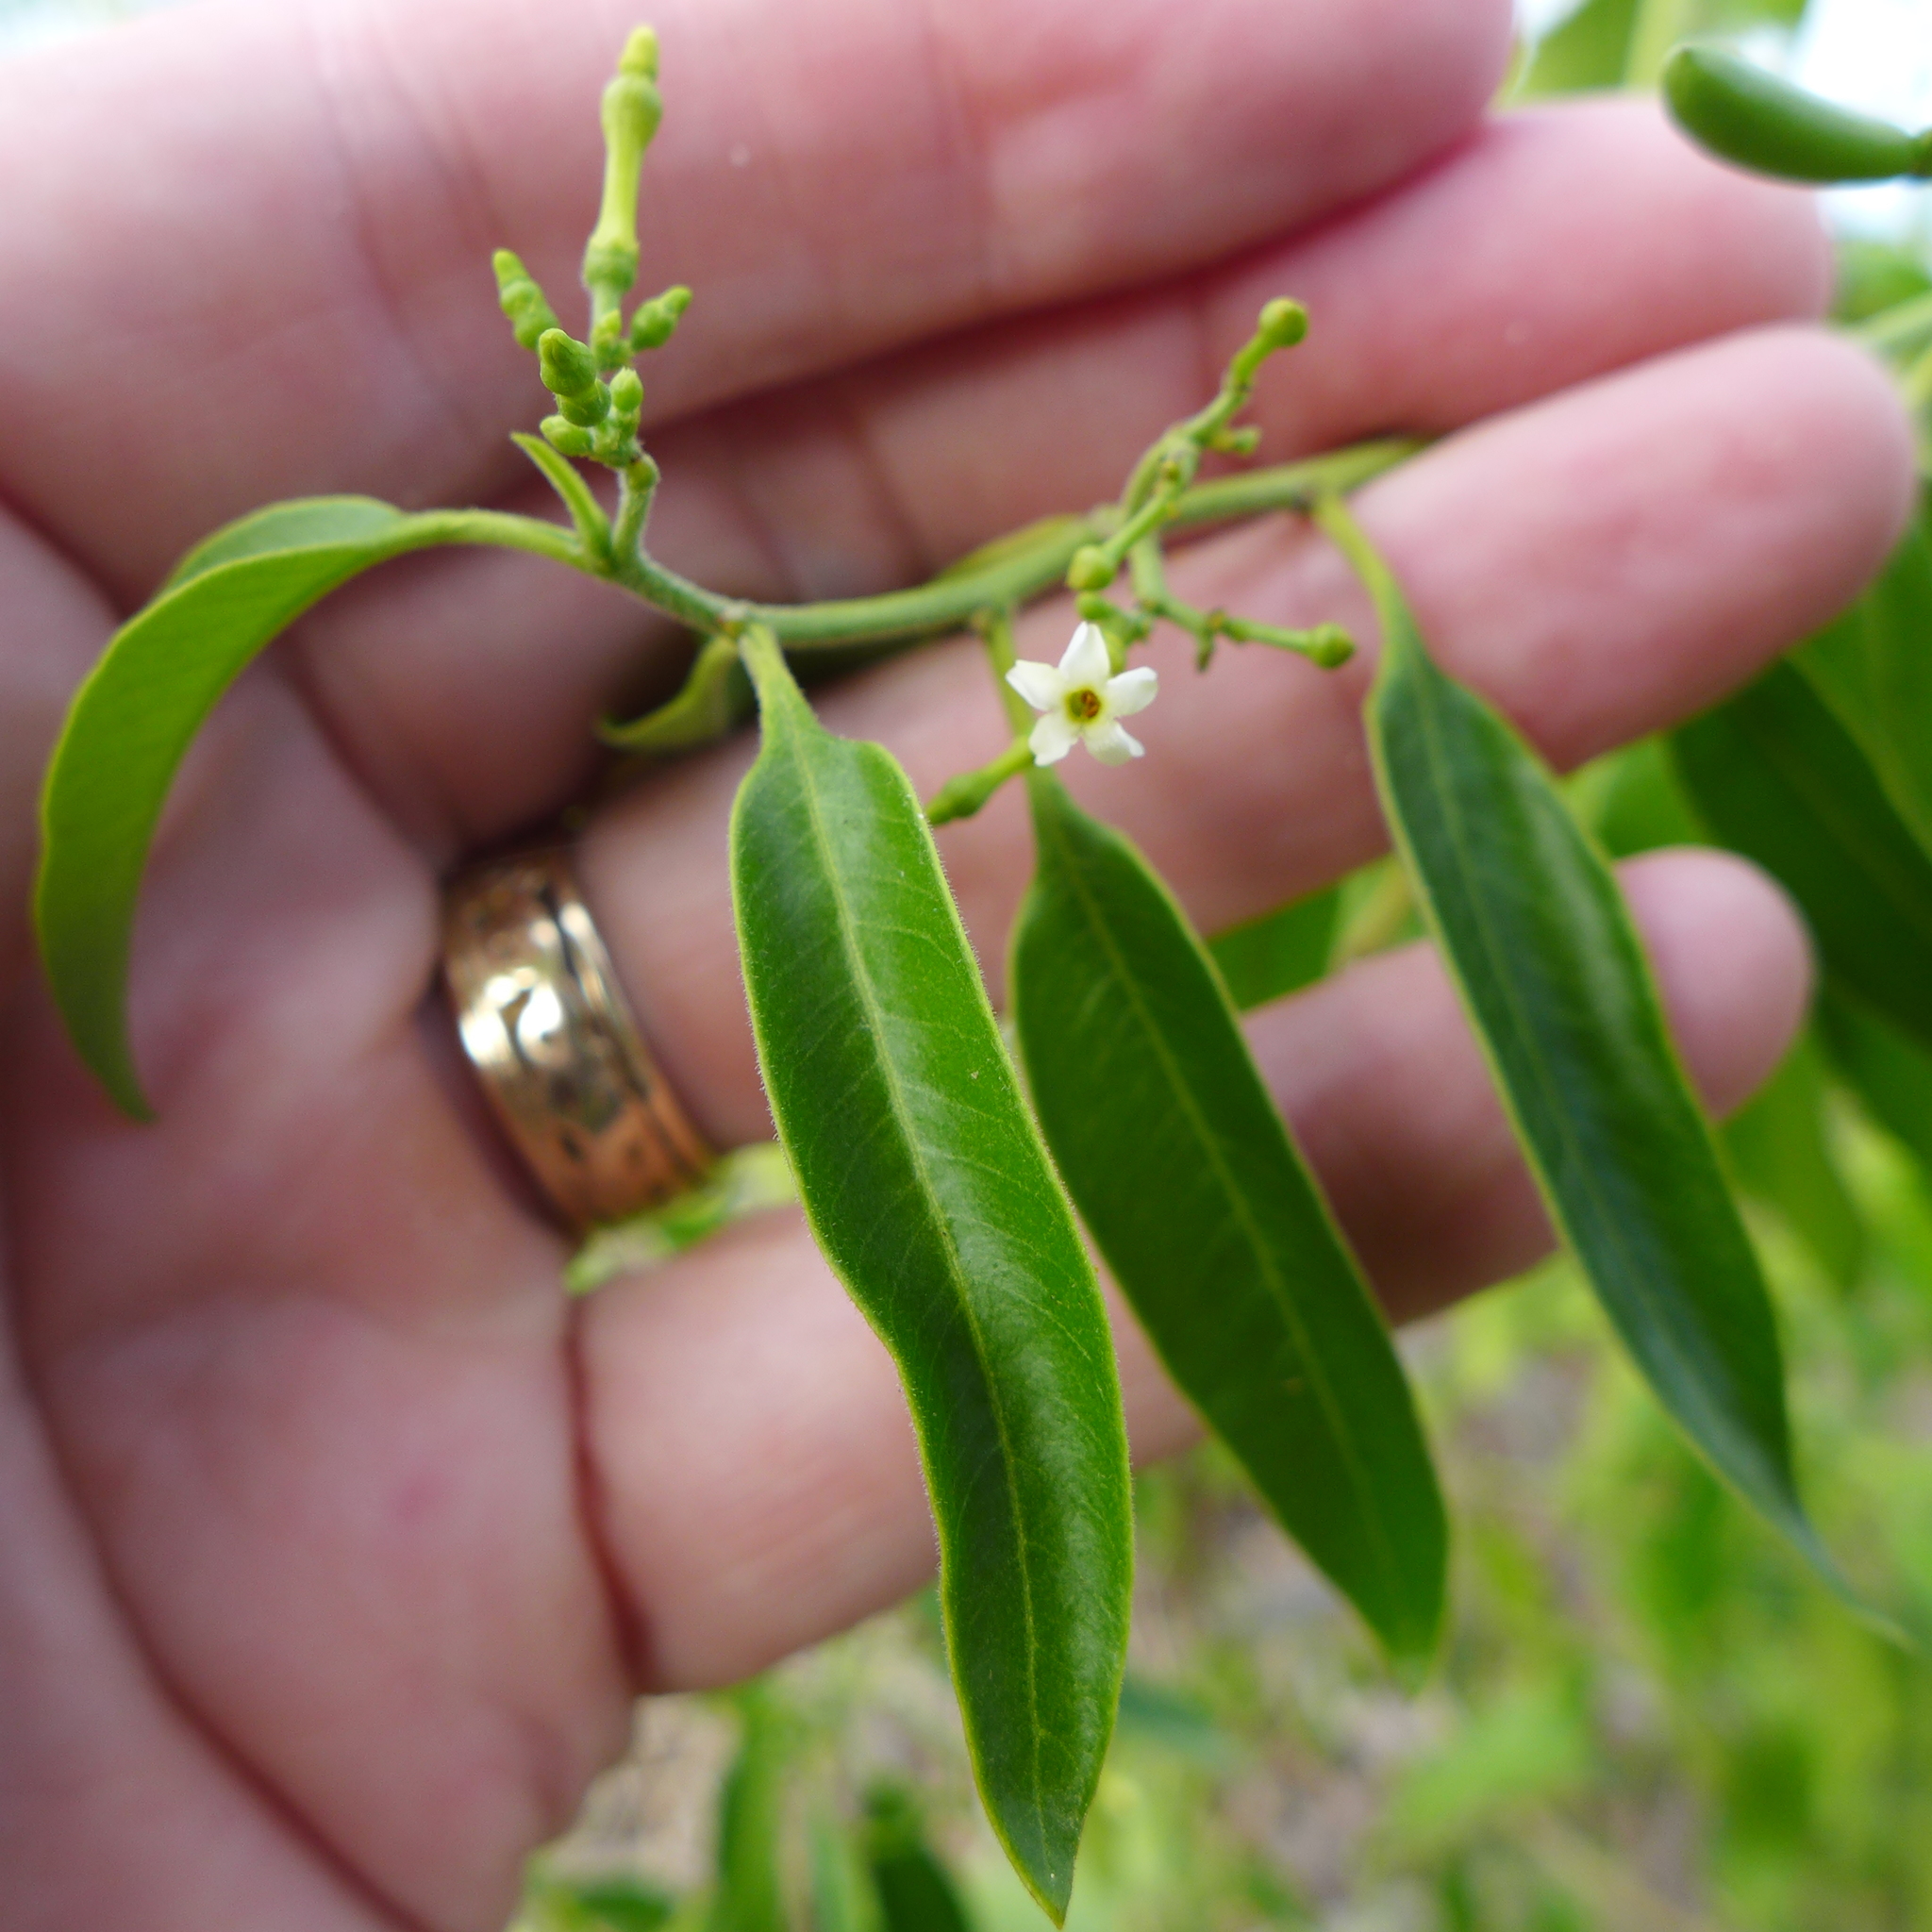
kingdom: Plantae
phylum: Tracheophyta
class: Magnoliopsida
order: Gentianales
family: Apocynaceae
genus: Vallesia
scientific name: Vallesia glabra
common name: Pearlberry
